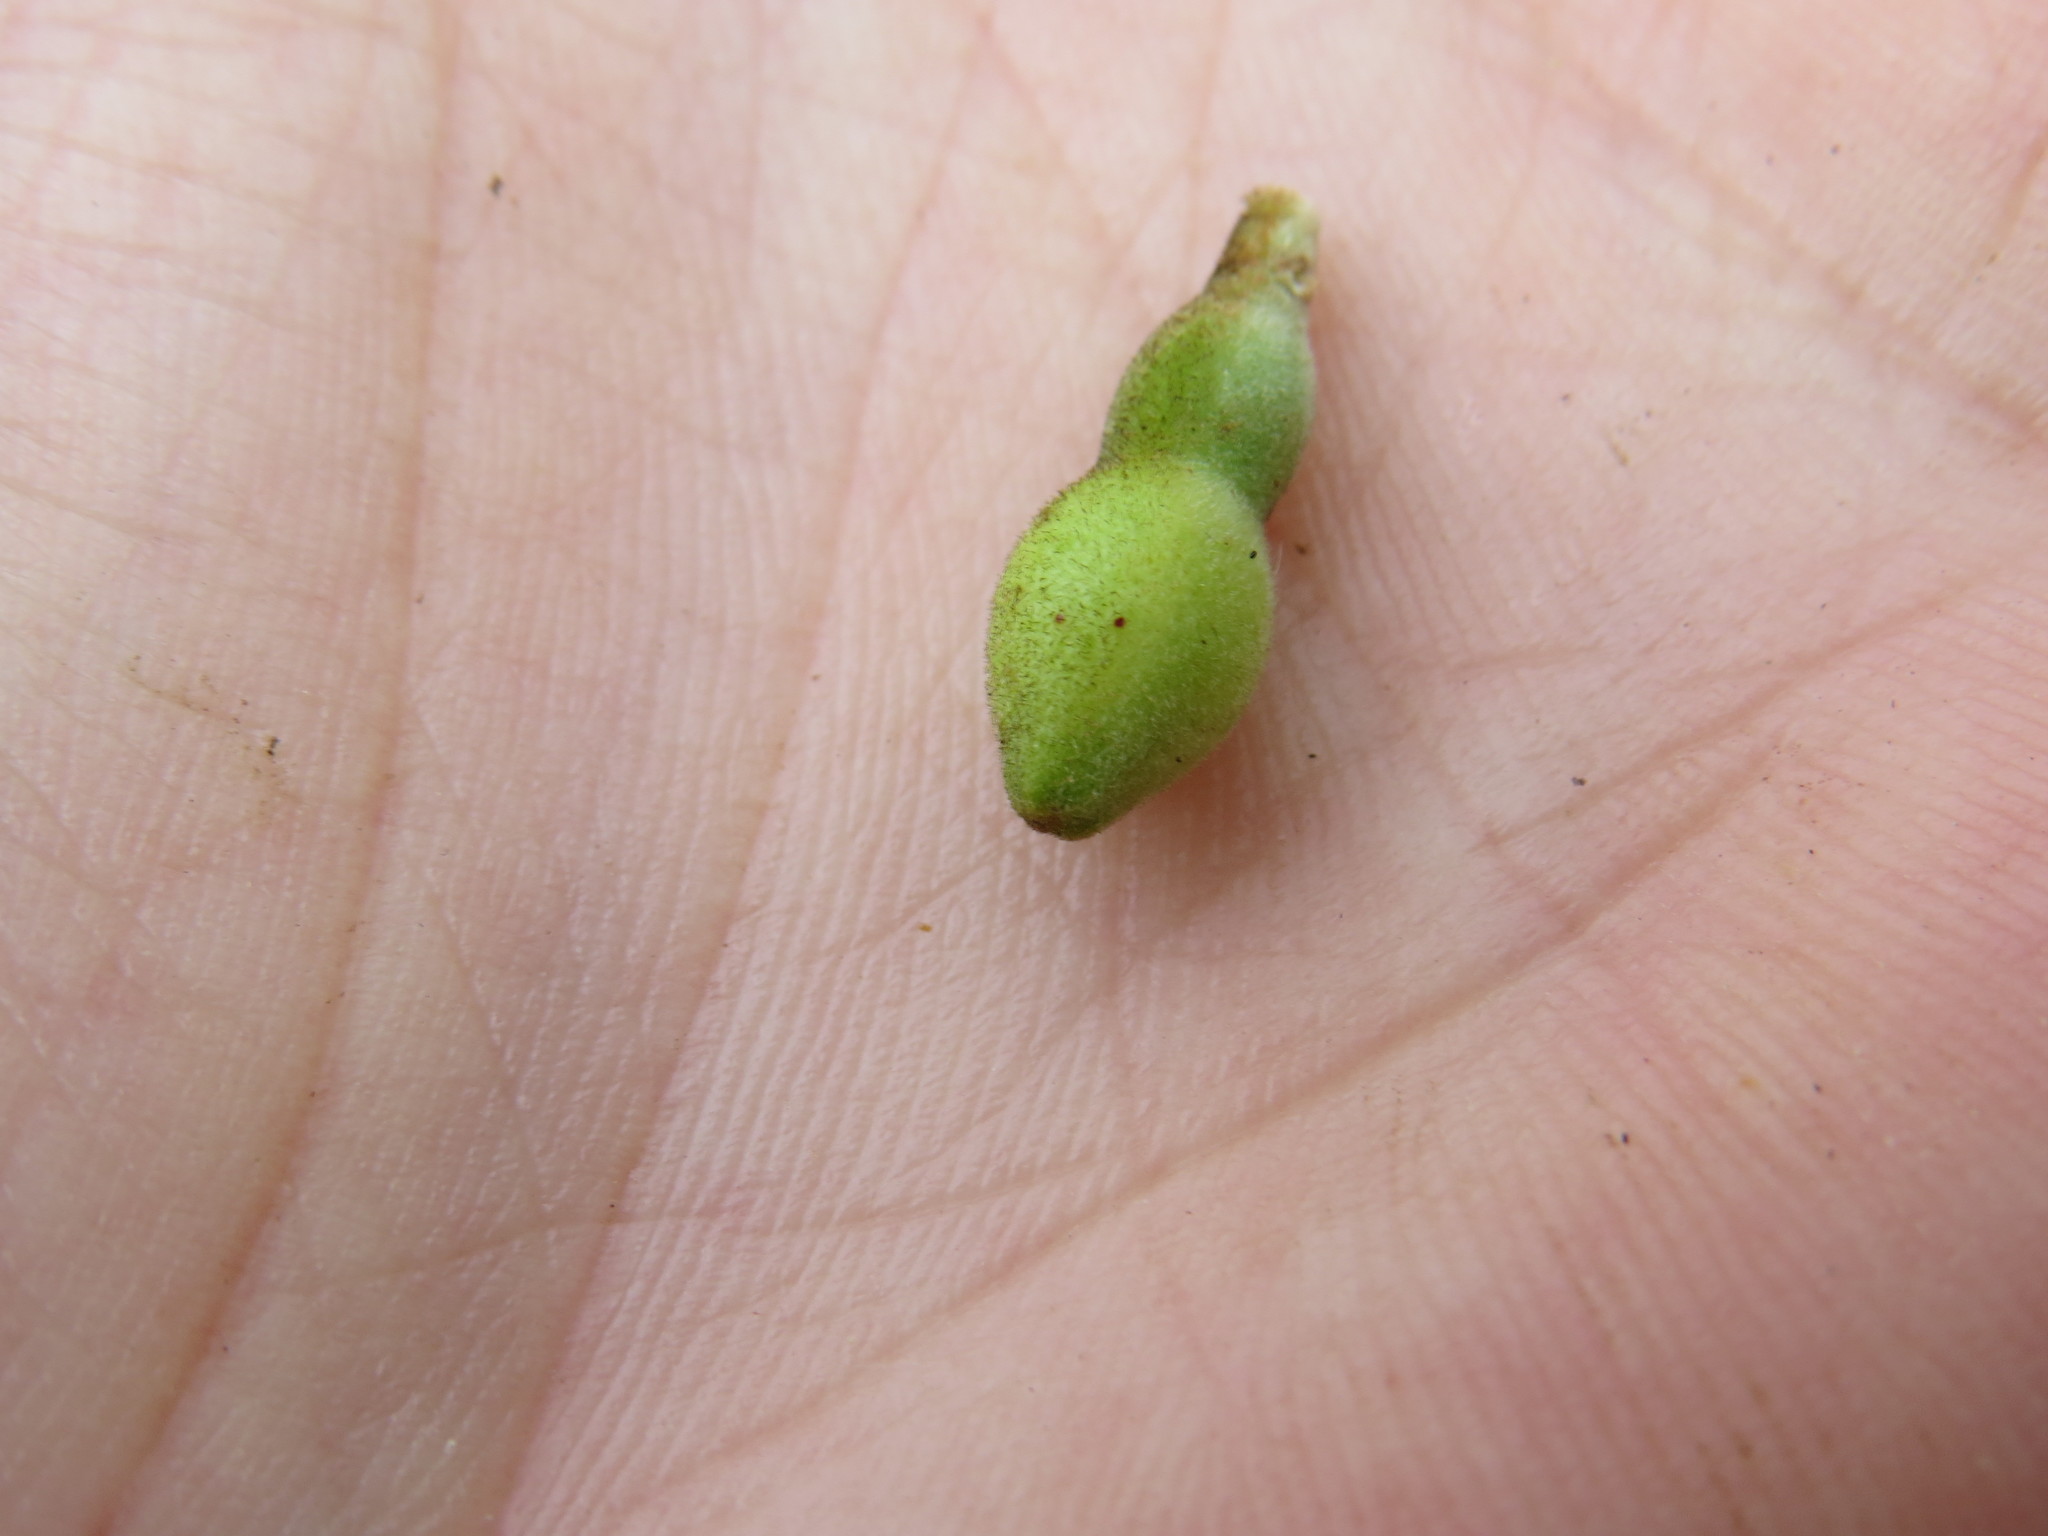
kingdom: Plantae
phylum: Tracheophyta
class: Magnoliopsida
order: Myrtales
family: Myrtaceae
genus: Psidium
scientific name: Psidium guajava
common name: Guava
